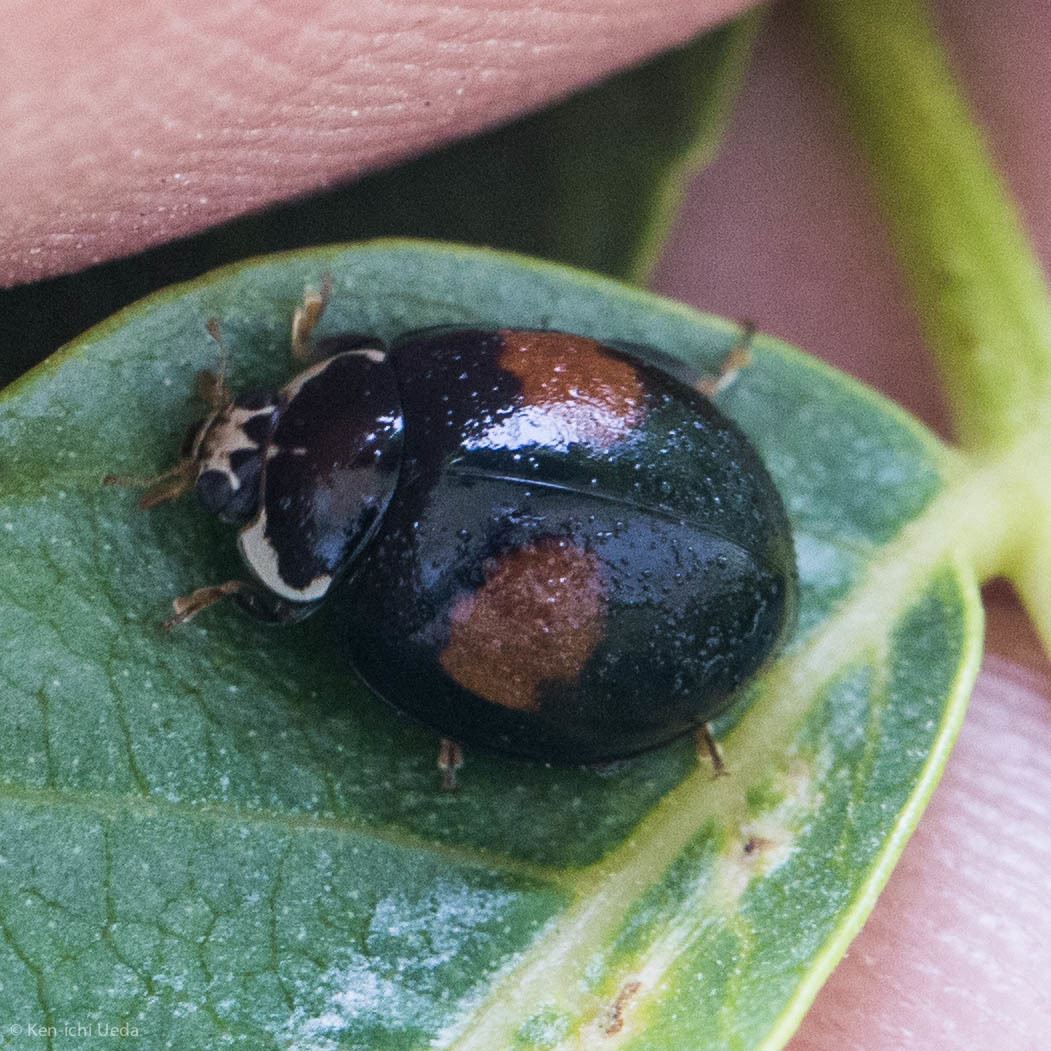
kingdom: Animalia
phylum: Arthropoda
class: Insecta
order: Coleoptera
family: Coccinellidae
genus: Olla
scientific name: Olla v-nigrum
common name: Ashy gray lady beetle
